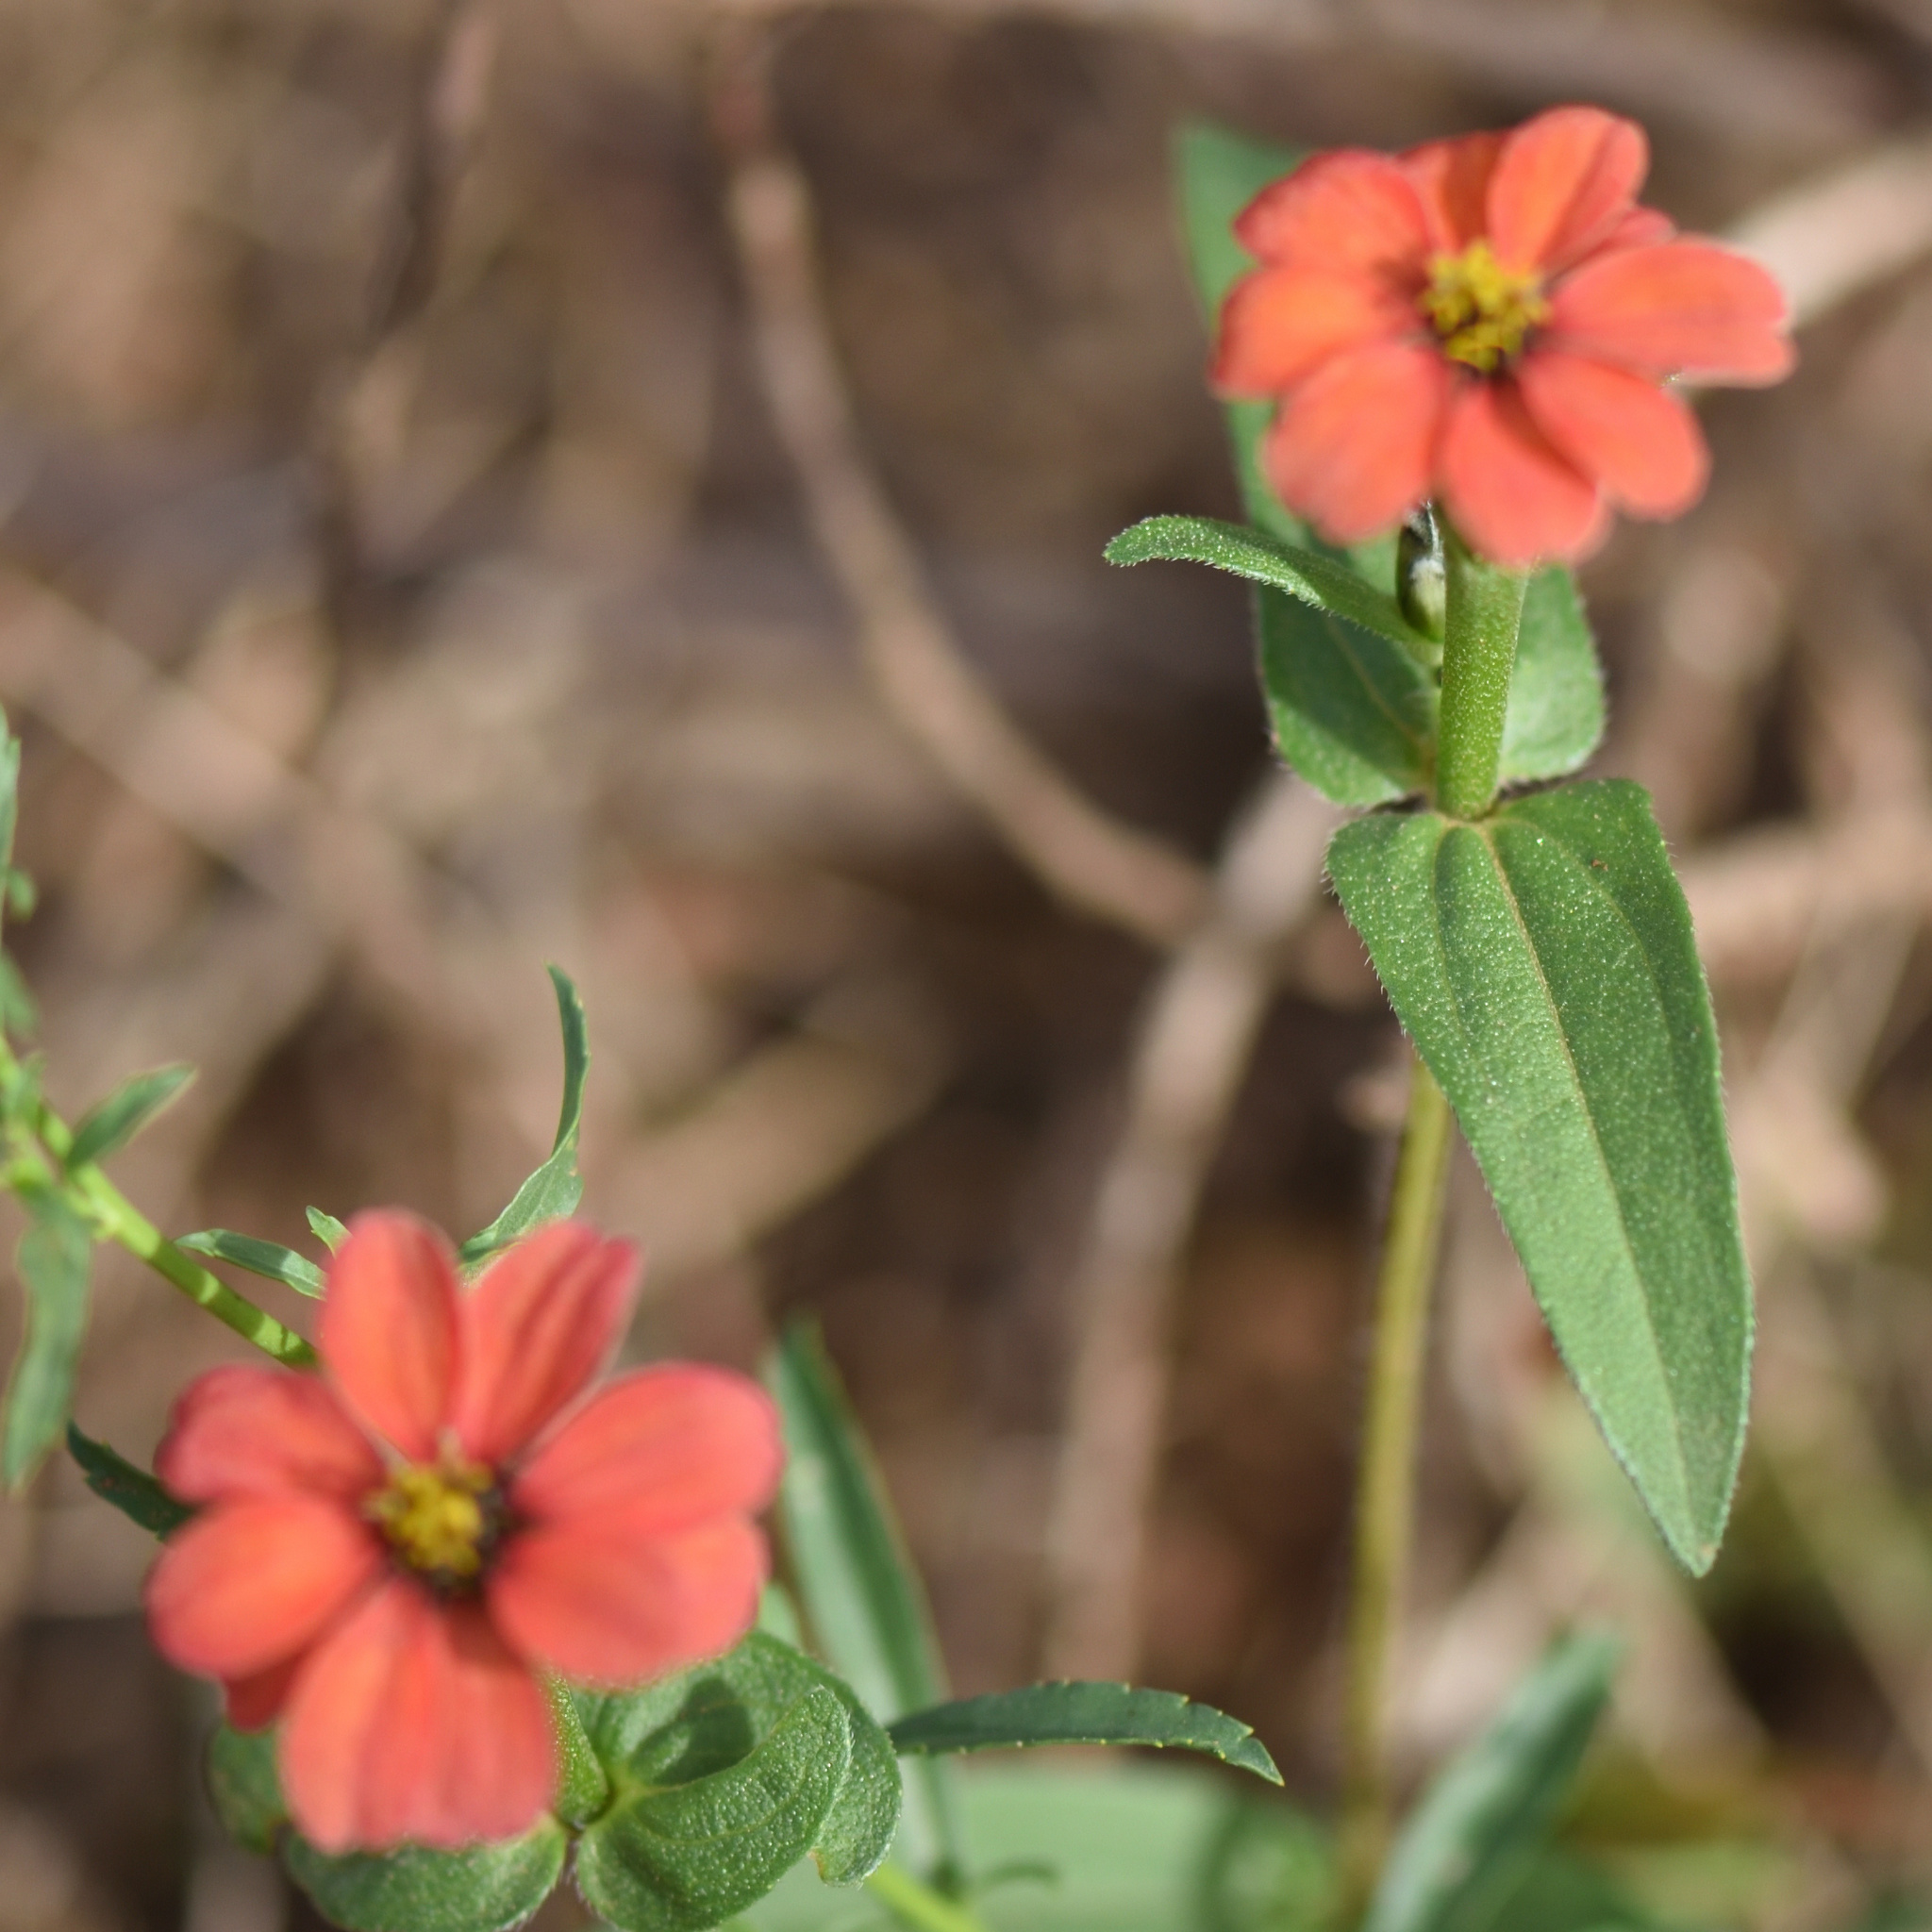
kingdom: Plantae
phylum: Tracheophyta
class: Magnoliopsida
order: Asterales
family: Asteraceae
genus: Zinnia
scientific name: Zinnia peruviana
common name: Peruvian zinnia
